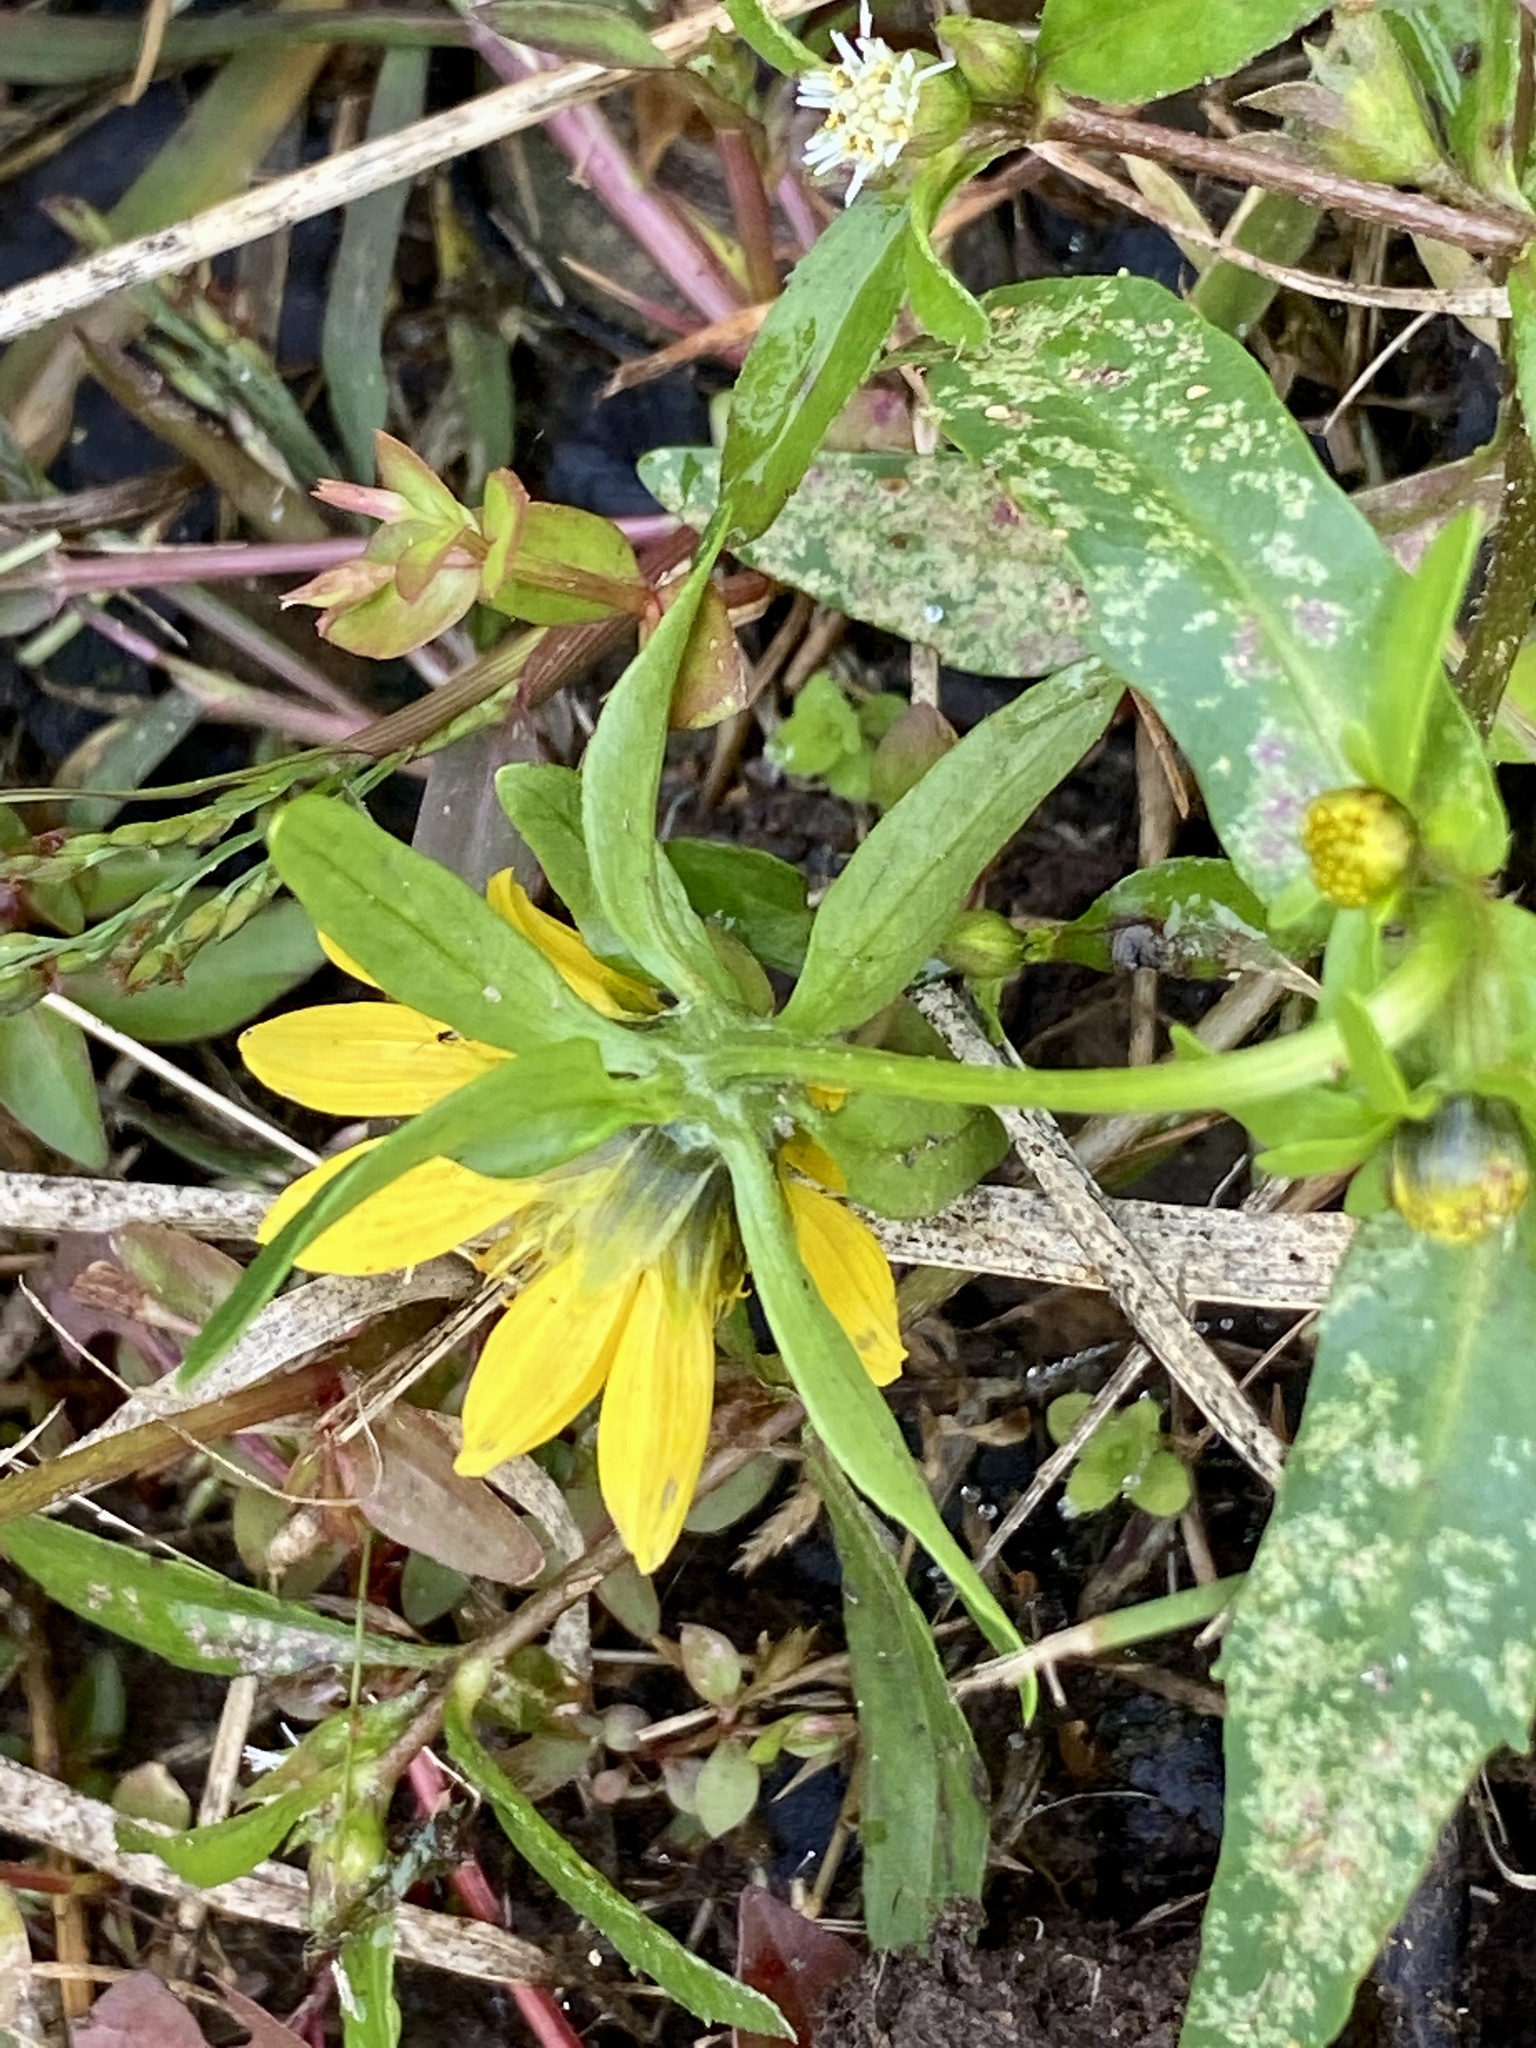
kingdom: Plantae
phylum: Tracheophyta
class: Magnoliopsida
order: Asterales
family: Asteraceae
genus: Bidens
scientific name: Bidens cernua
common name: Nodding bur-marigold
